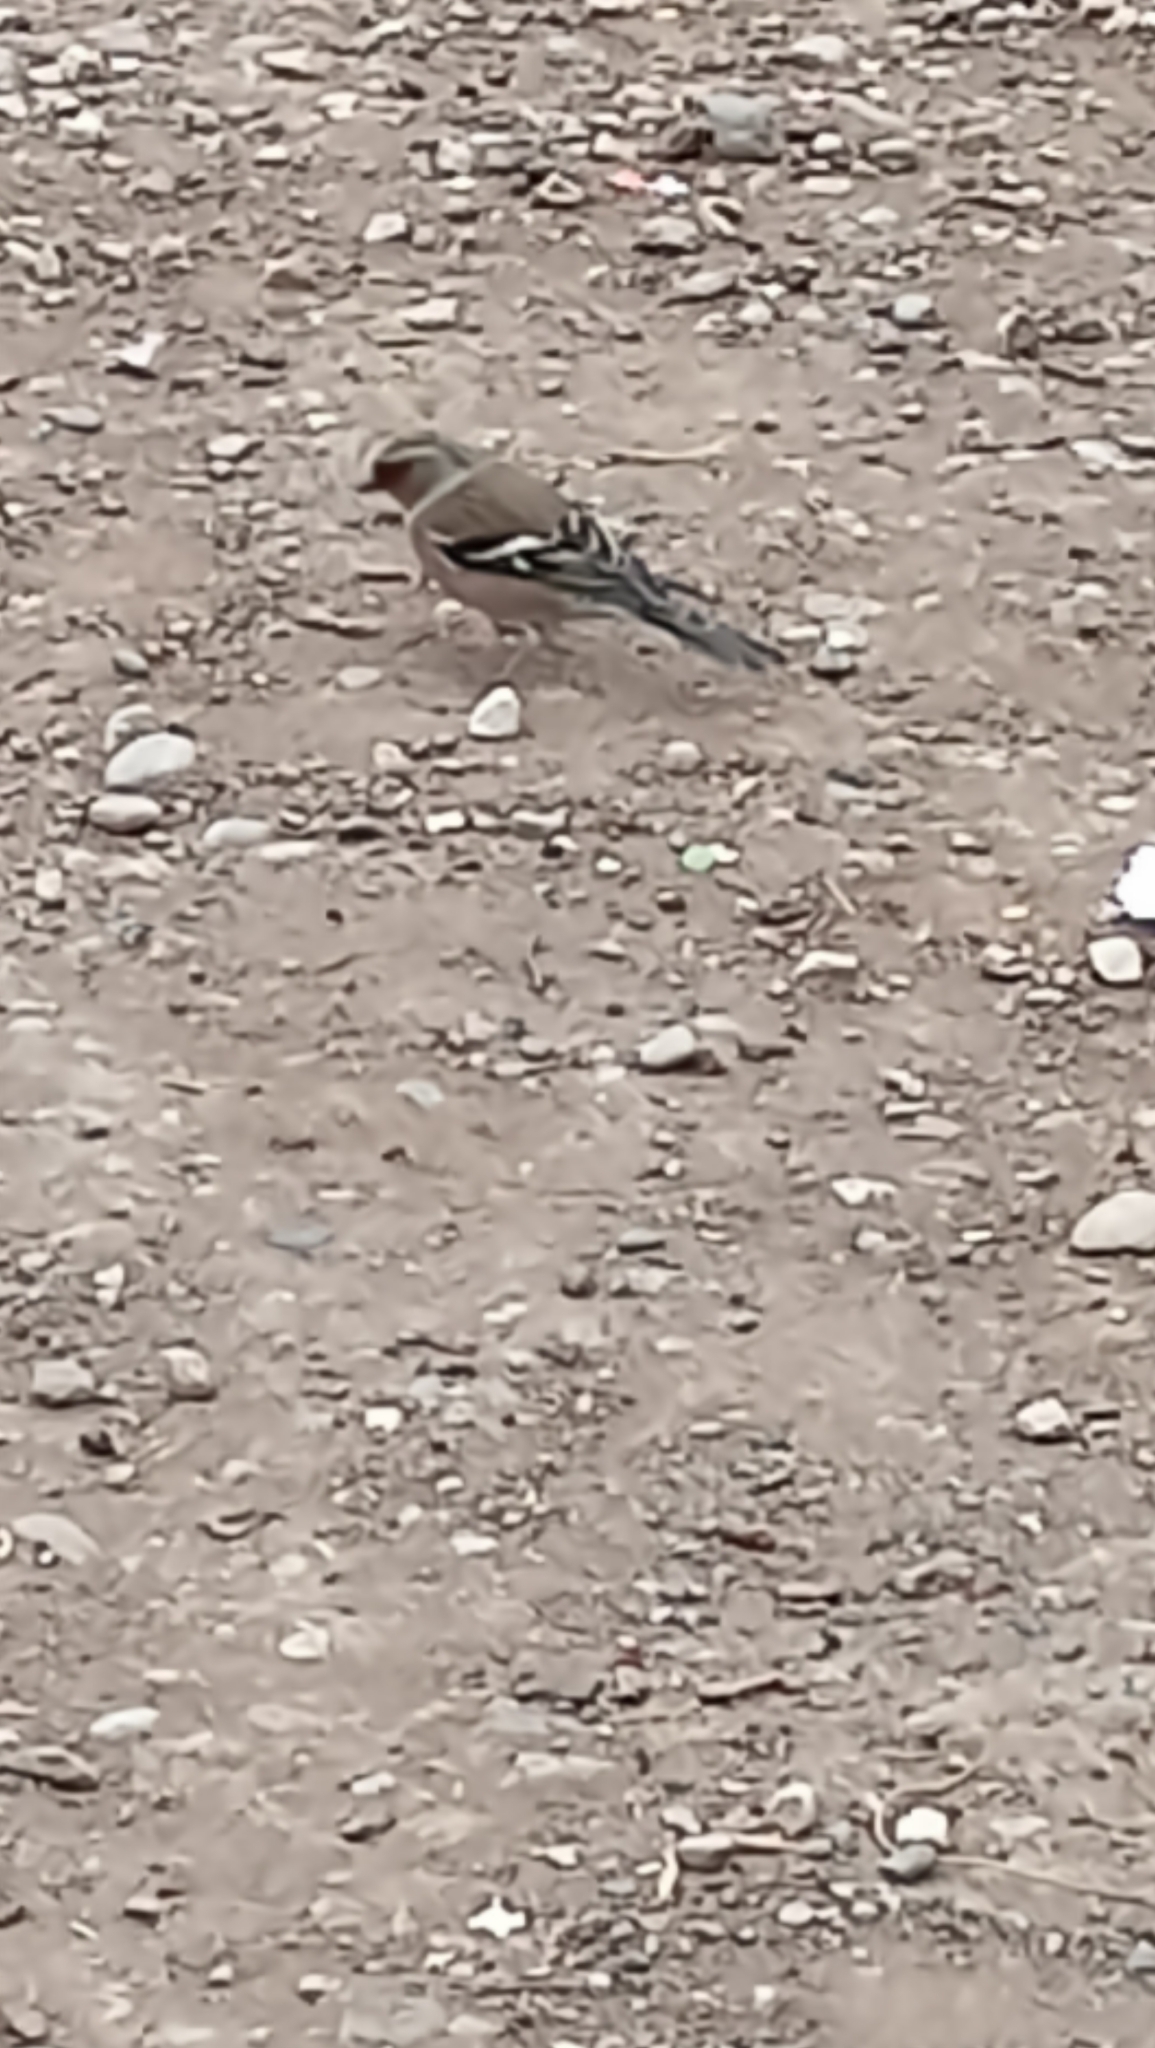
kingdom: Animalia
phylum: Chordata
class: Aves
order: Passeriformes
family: Fringillidae
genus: Fringilla
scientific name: Fringilla coelebs
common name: Common chaffinch
